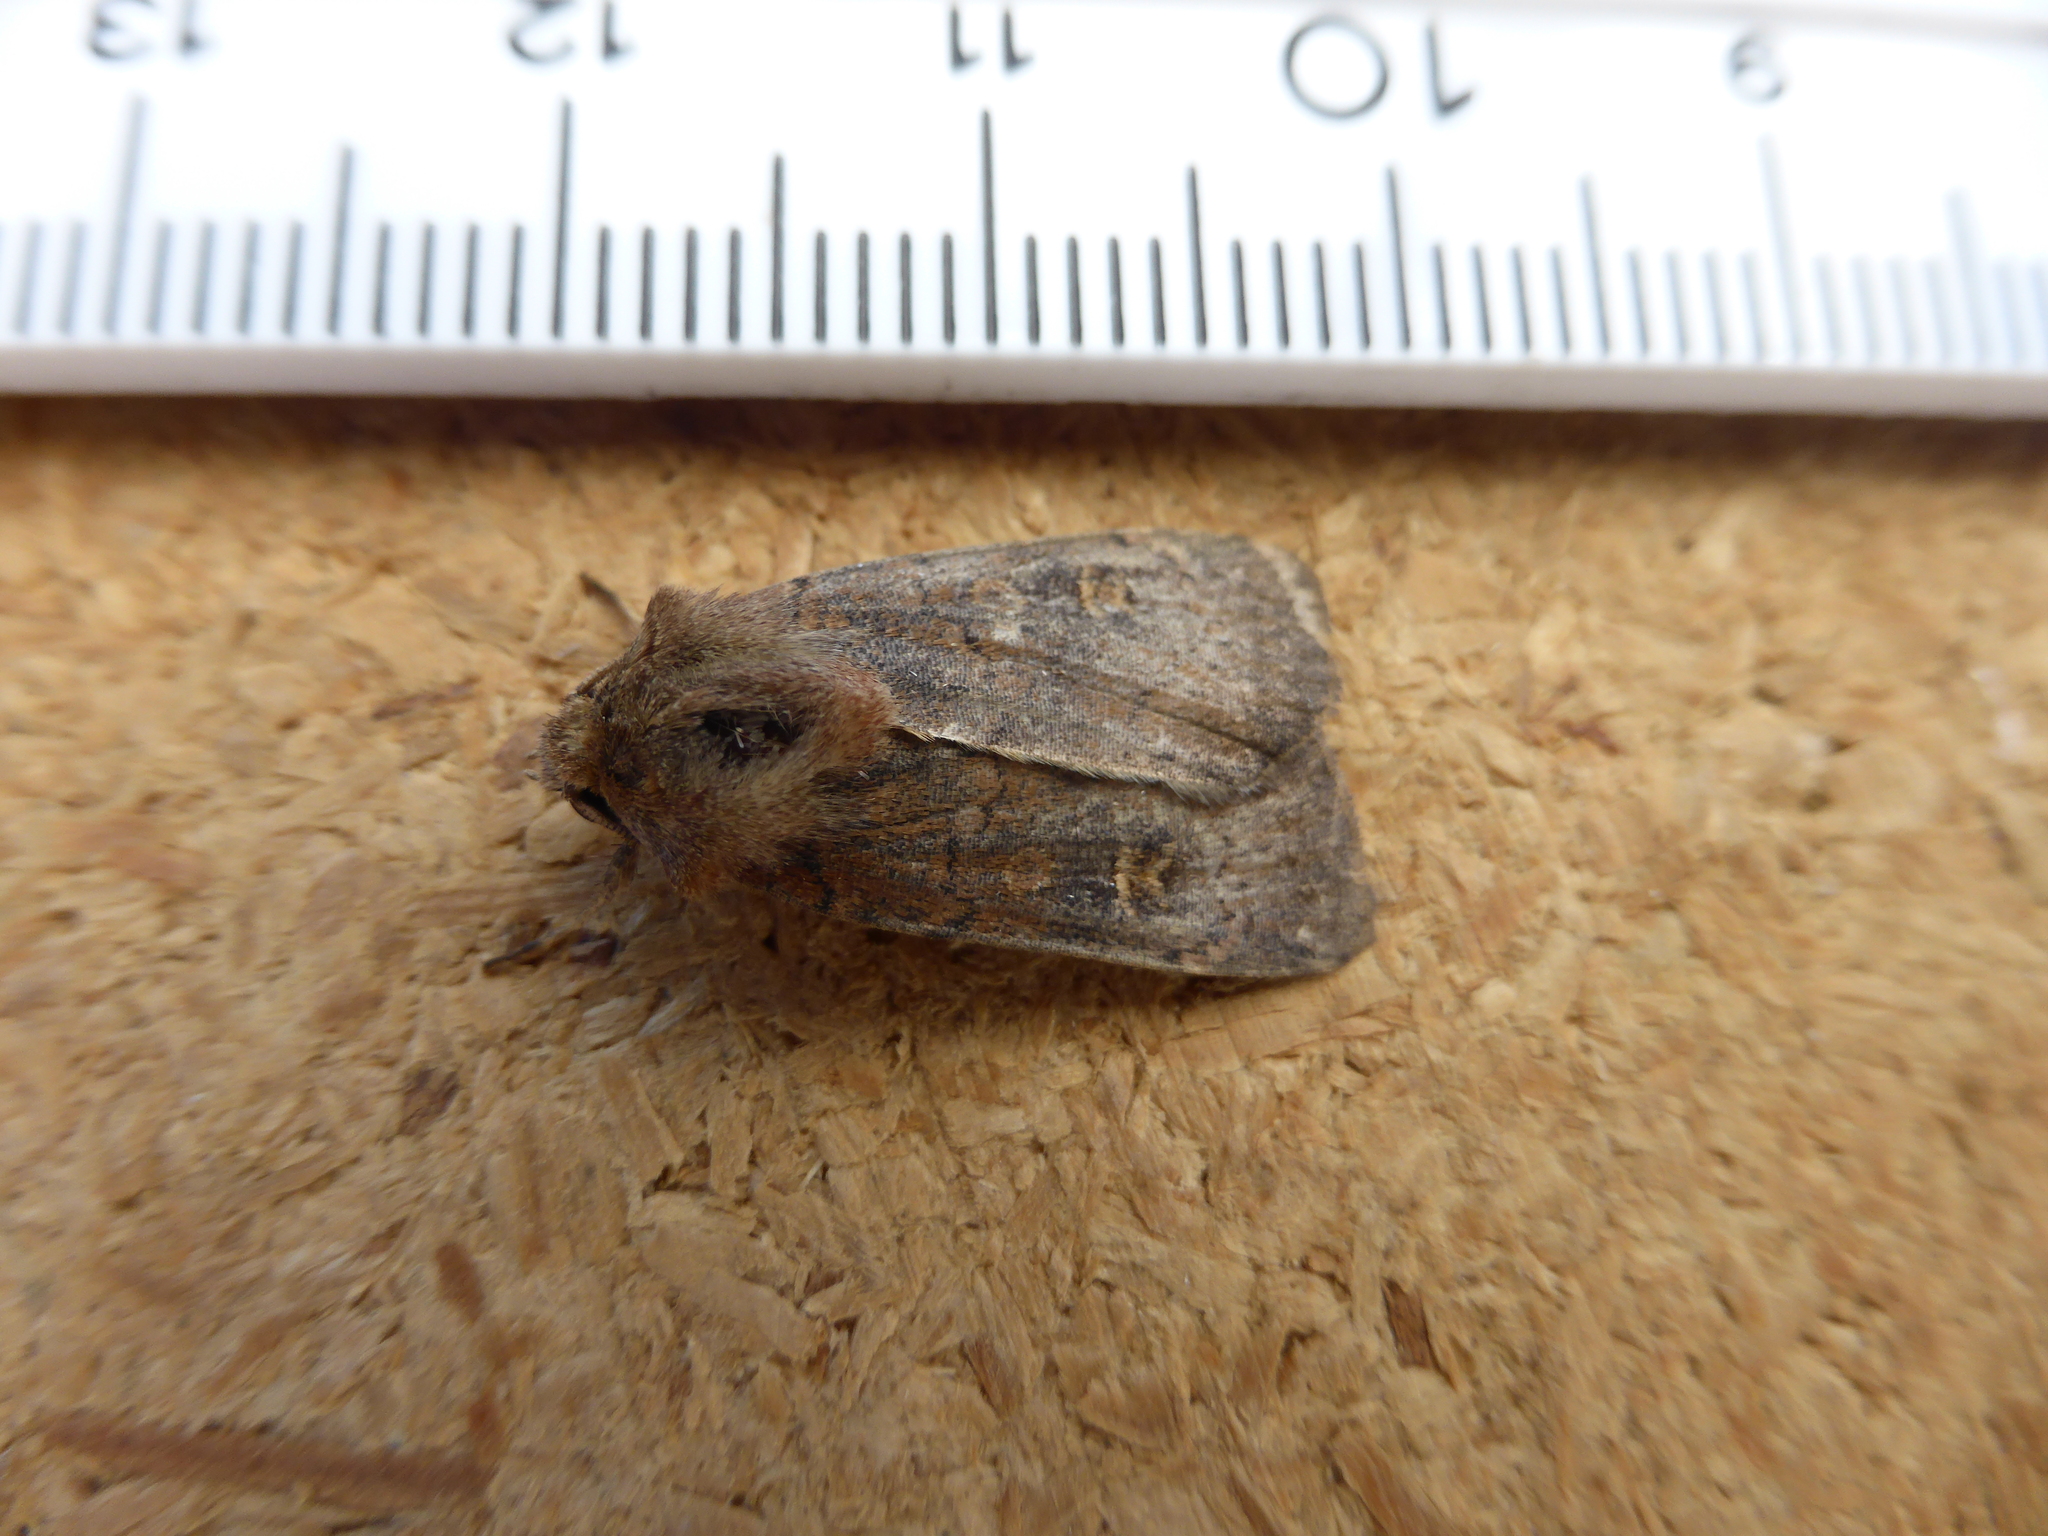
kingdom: Animalia
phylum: Arthropoda
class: Insecta
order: Lepidoptera
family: Noctuidae
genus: Xestia
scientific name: Xestia xanthographa
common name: Square-spot rustic
